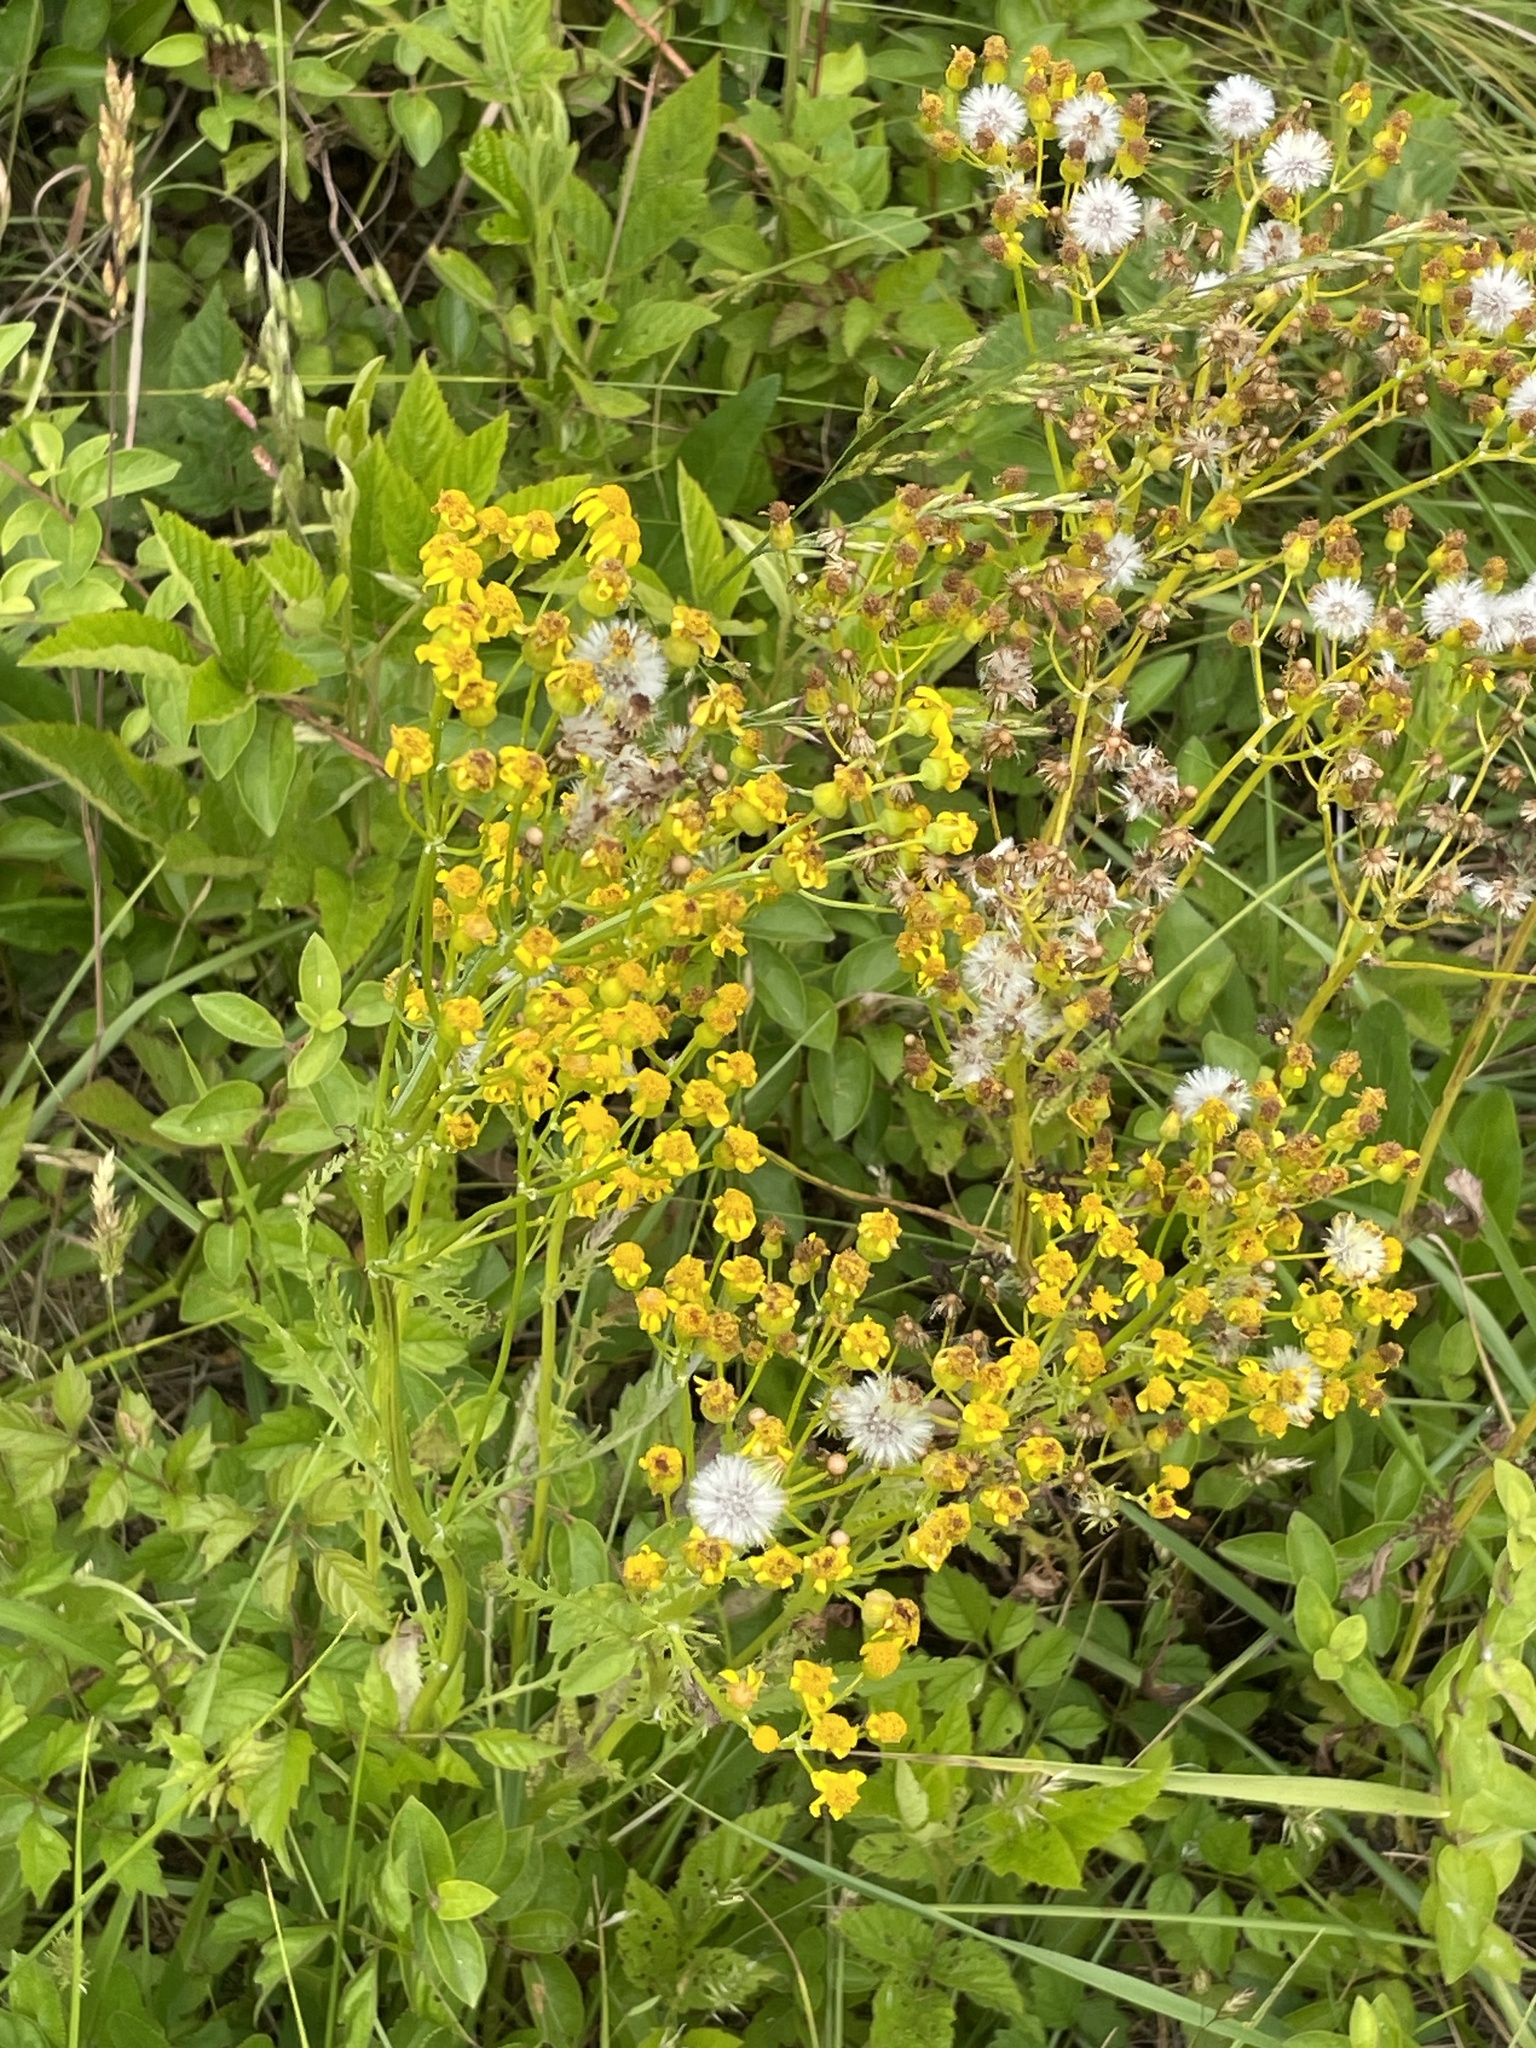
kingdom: Plantae
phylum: Tracheophyta
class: Magnoliopsida
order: Asterales
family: Asteraceae
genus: Packera
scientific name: Packera anonyma
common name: Small ragwort
